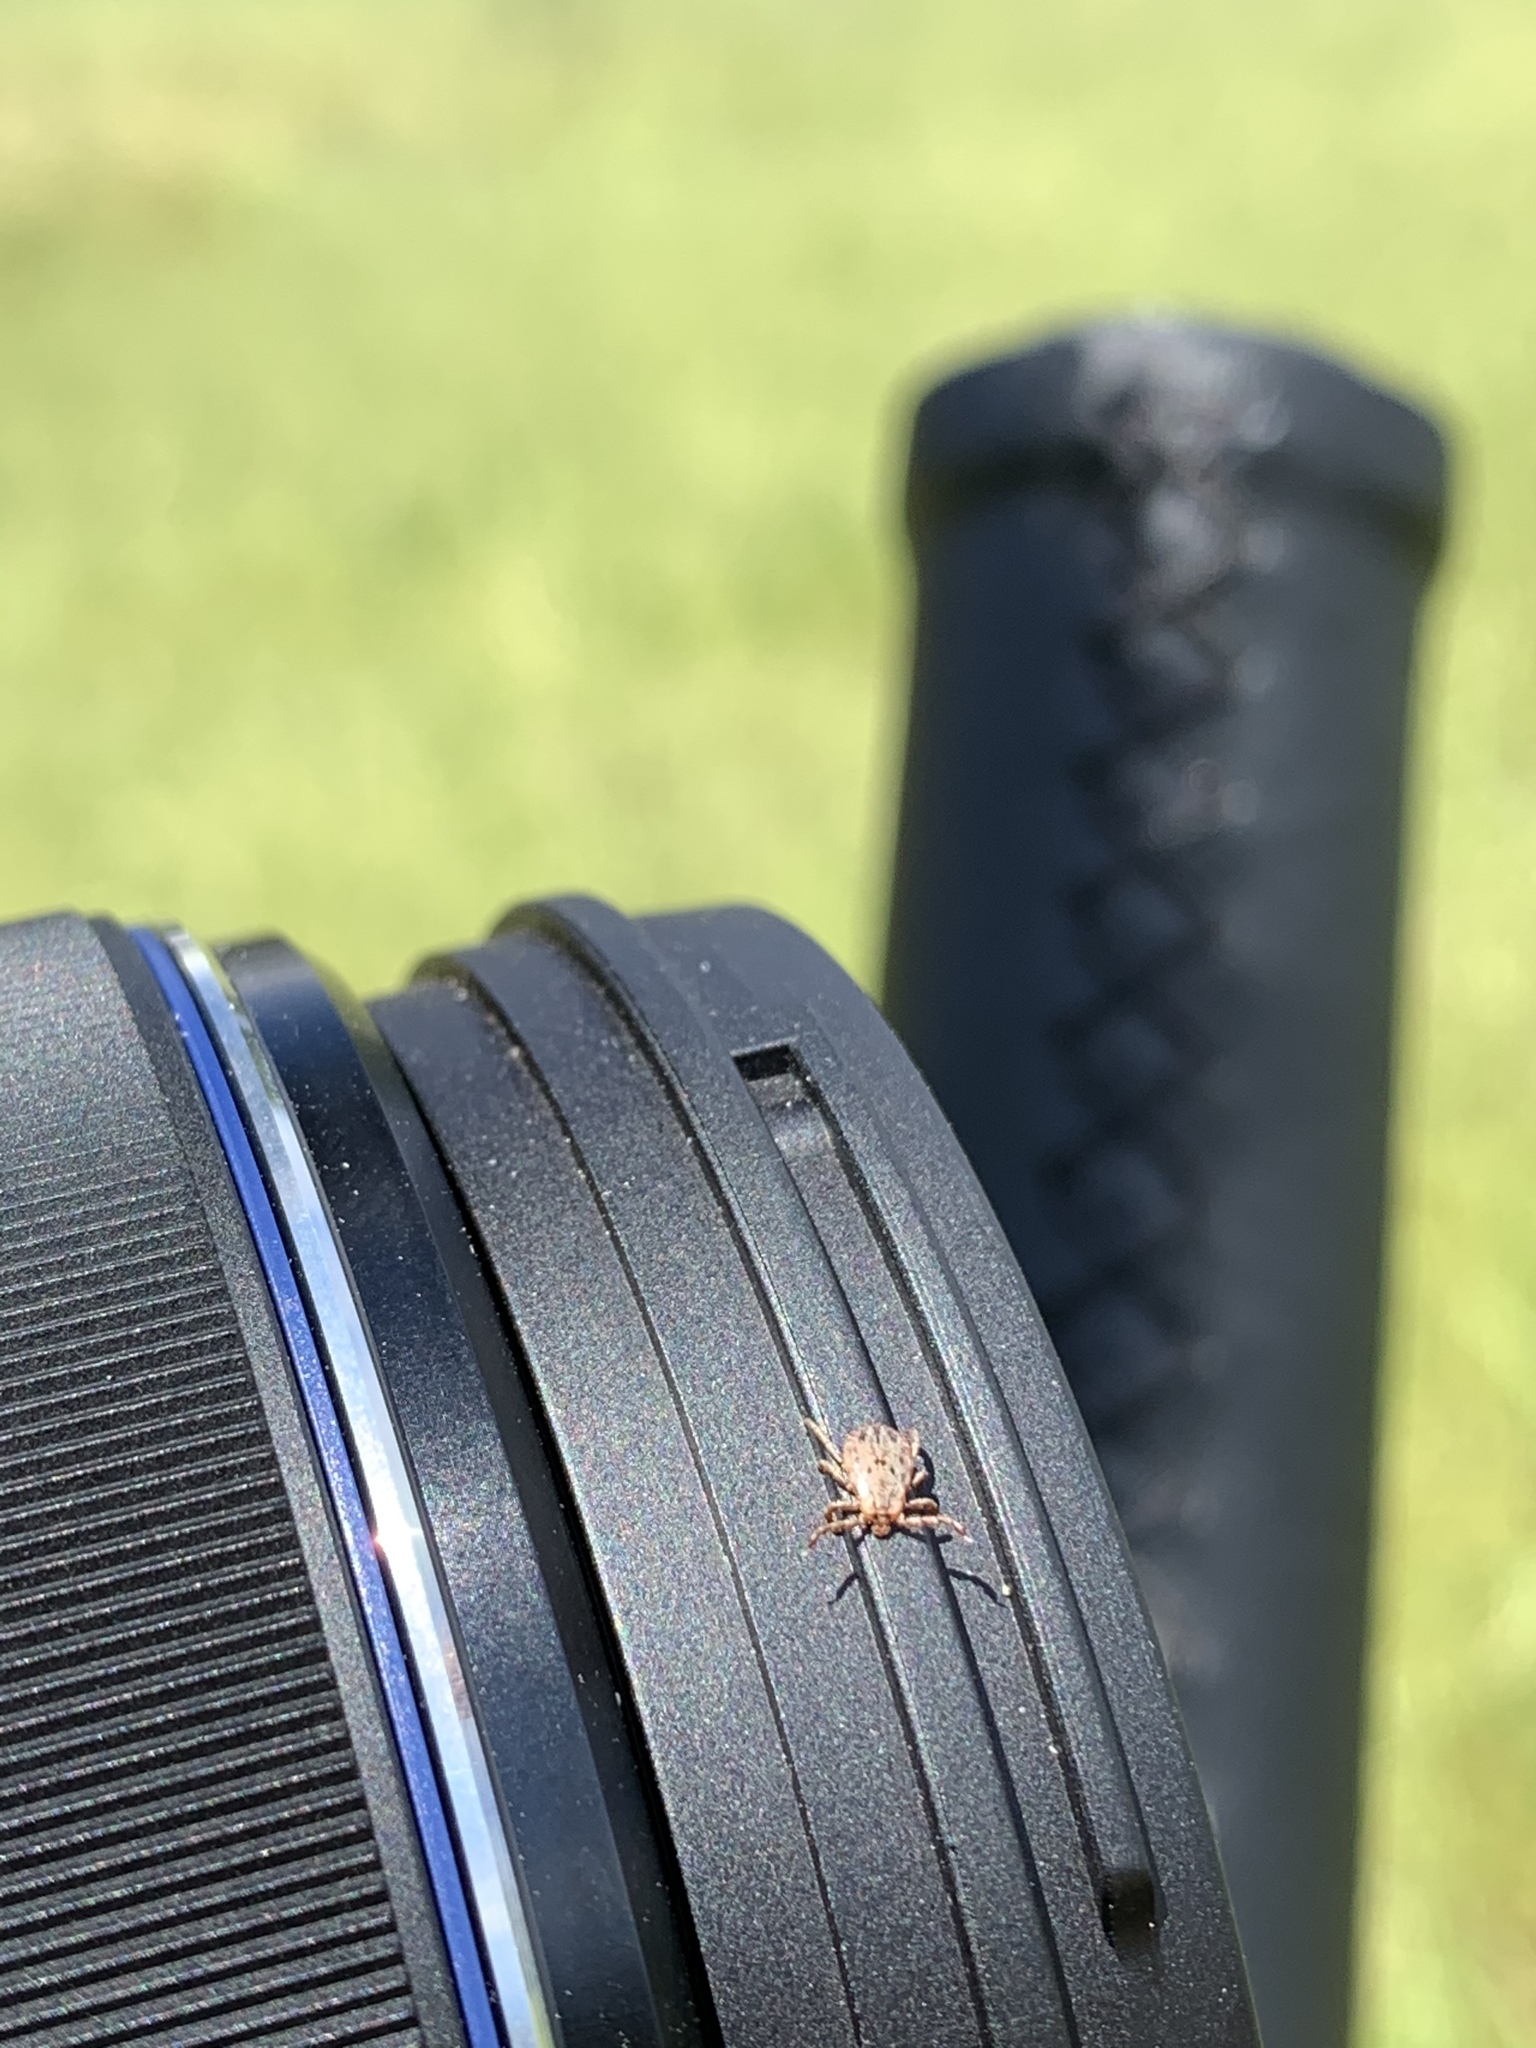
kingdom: Animalia
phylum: Arthropoda
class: Arachnida
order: Ixodida
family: Ixodidae
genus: Dermacentor
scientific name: Dermacentor occidentalis
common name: Net tick
